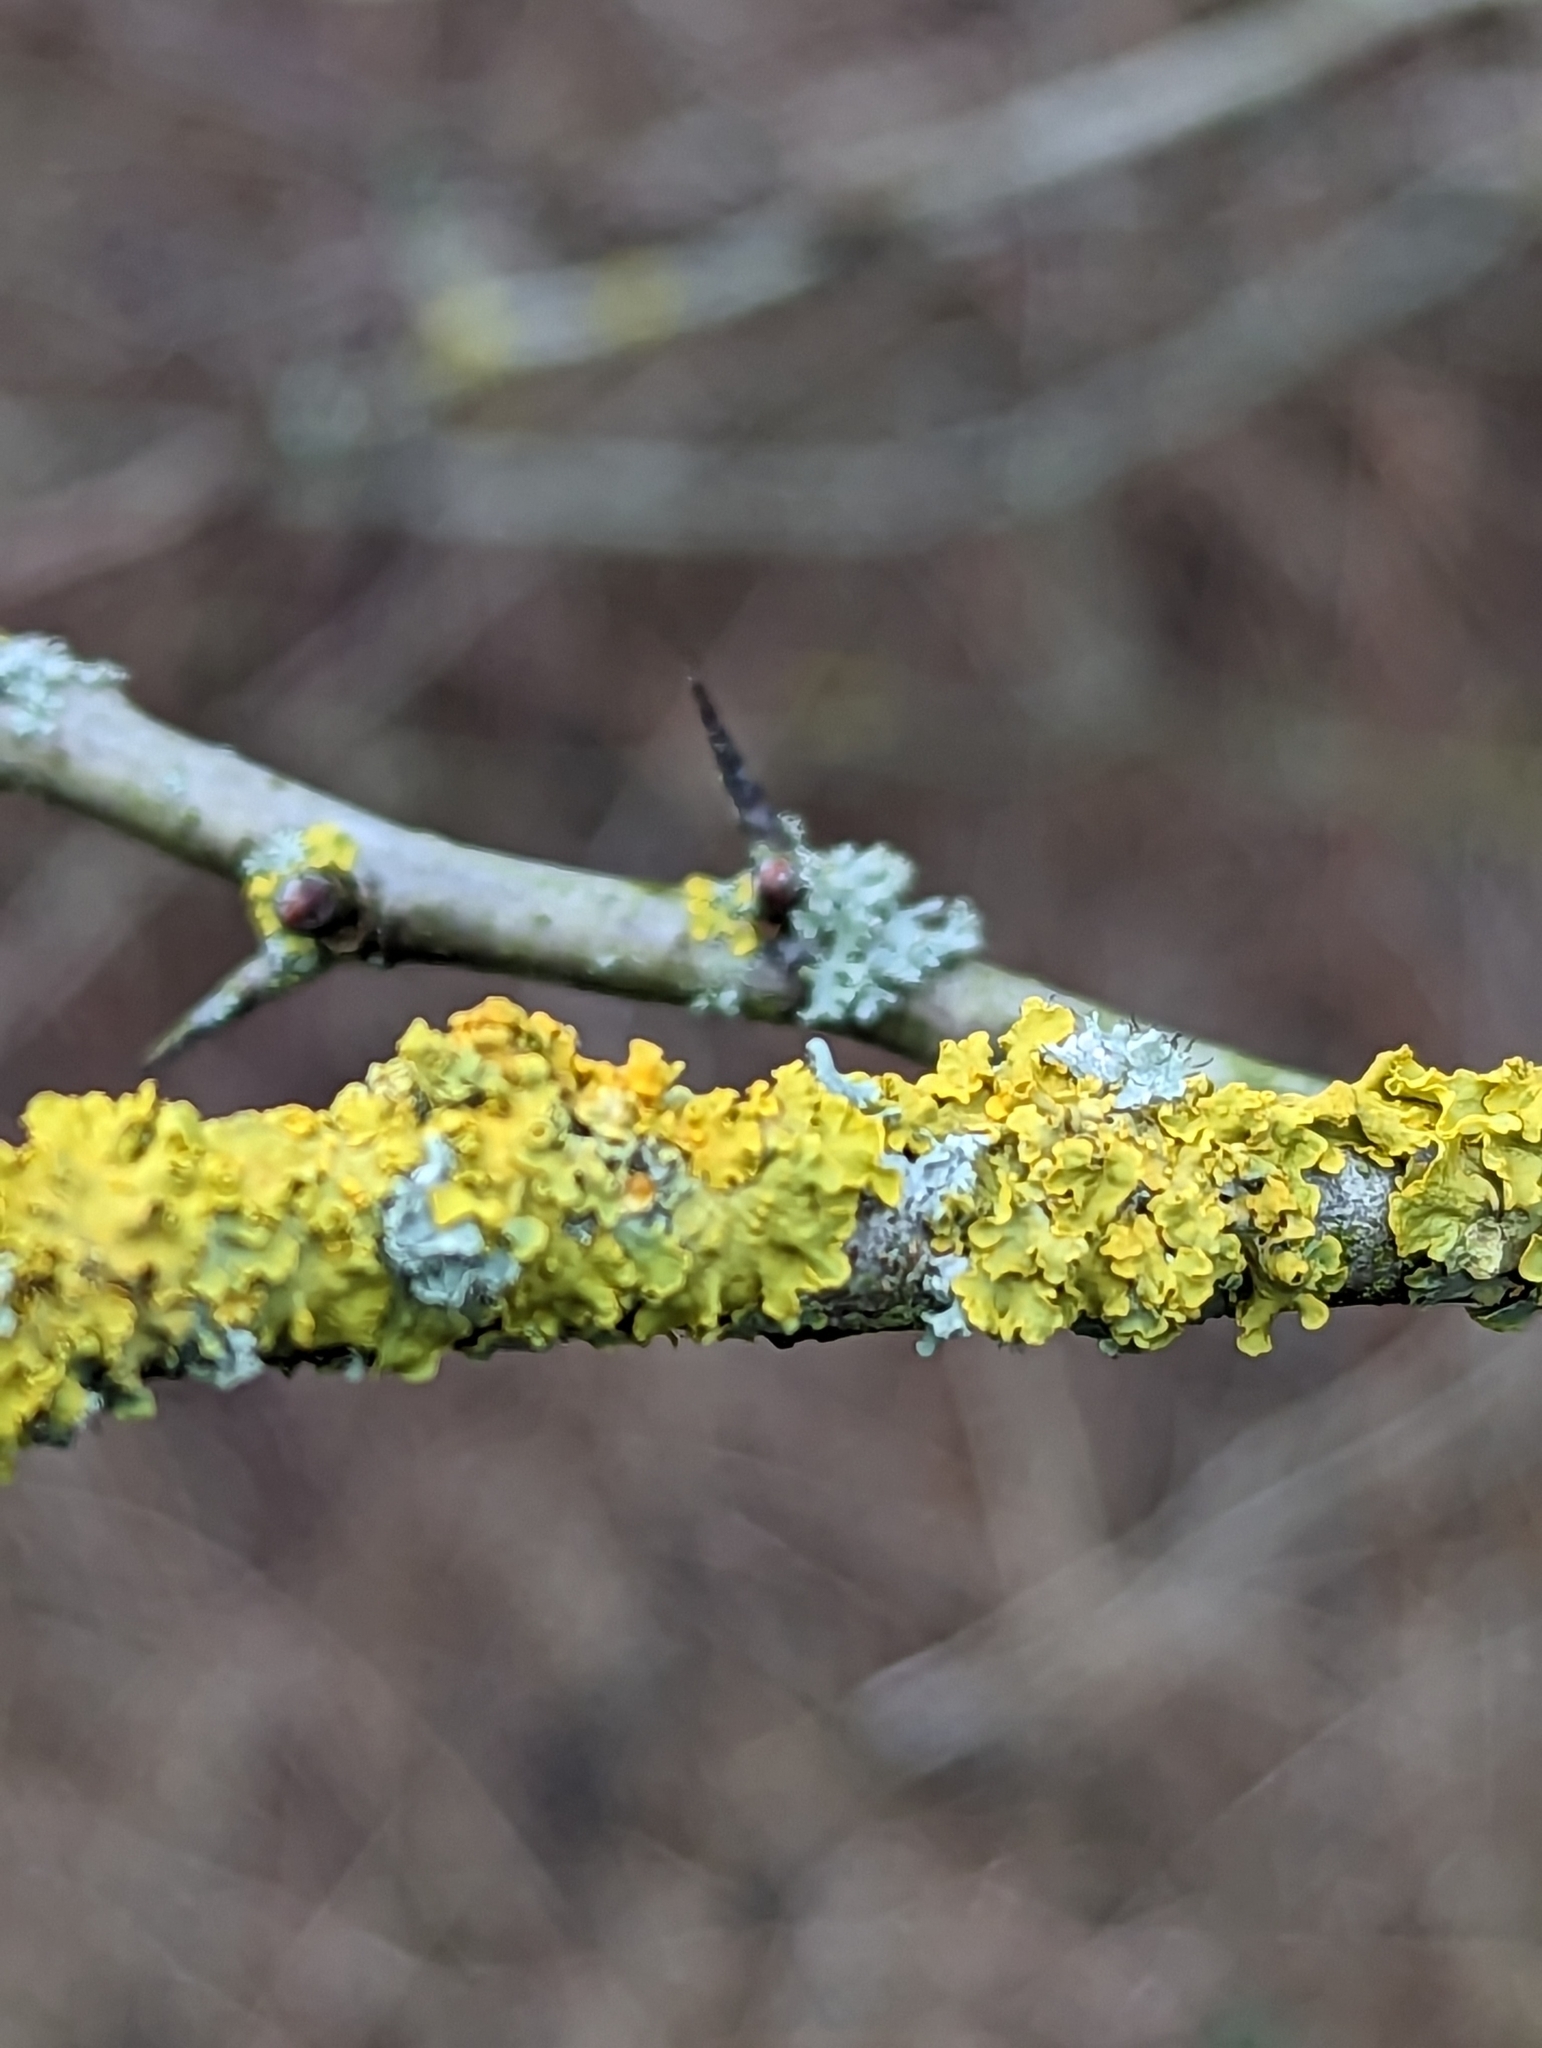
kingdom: Fungi
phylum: Ascomycota
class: Lecanoromycetes
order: Teloschistales
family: Teloschistaceae
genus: Xanthoria
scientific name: Xanthoria parietina
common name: Common orange lichen
